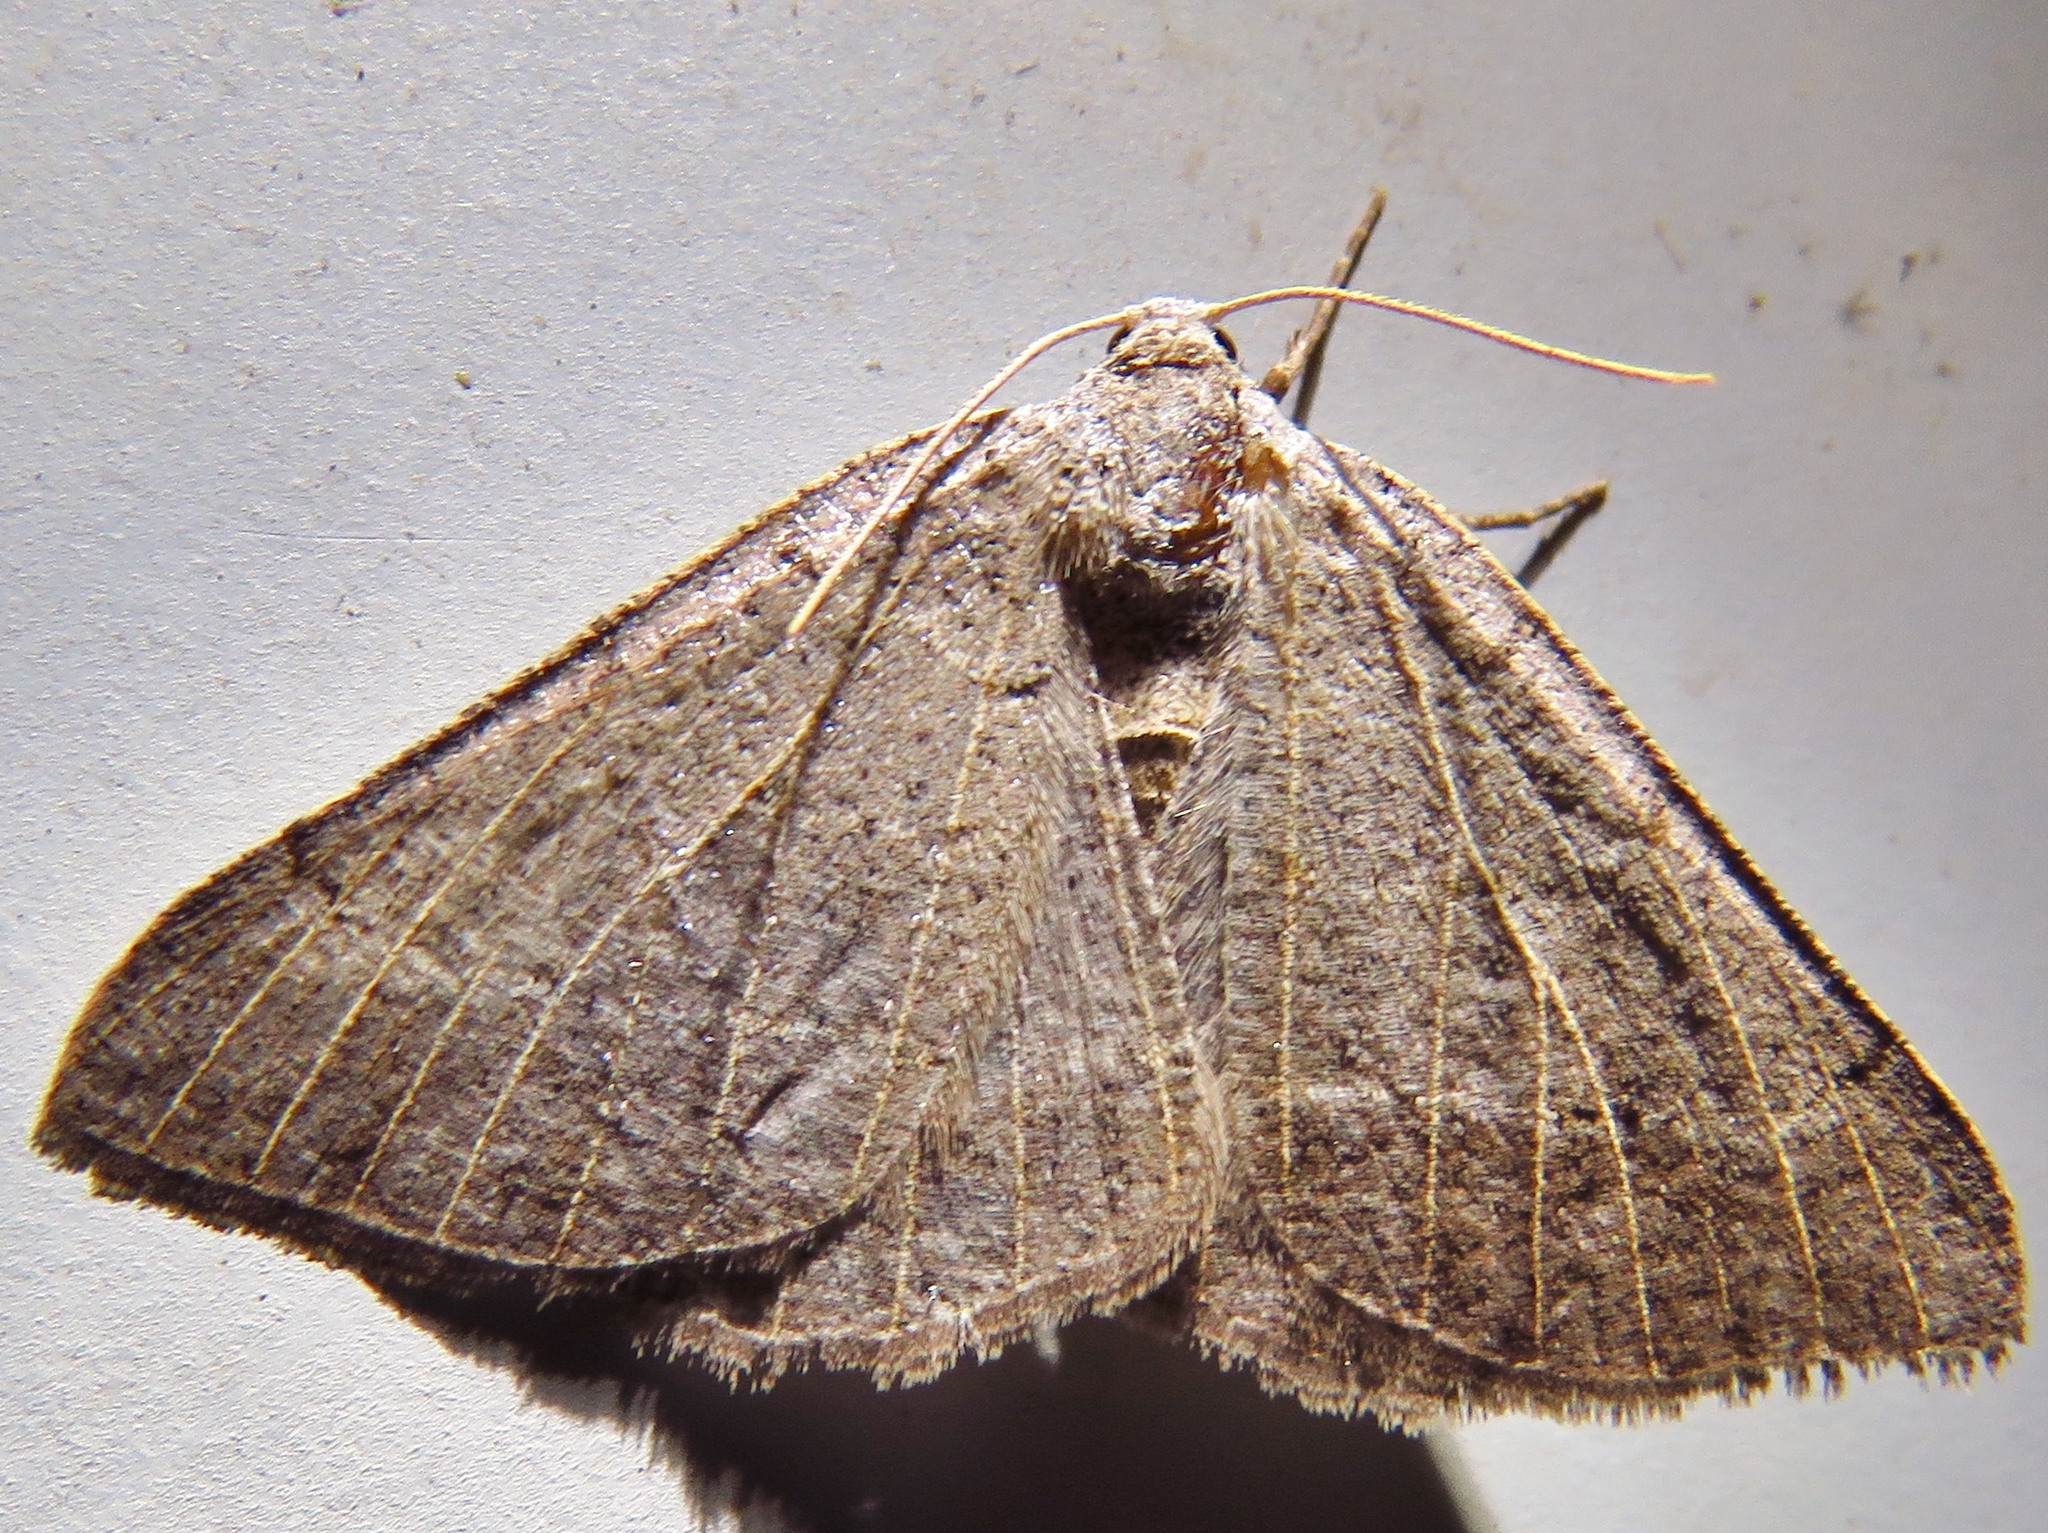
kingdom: Animalia
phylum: Arthropoda
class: Insecta
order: Lepidoptera
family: Geometridae
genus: Isturgia
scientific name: Isturgia dislocaria
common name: Pale-viened enconista
